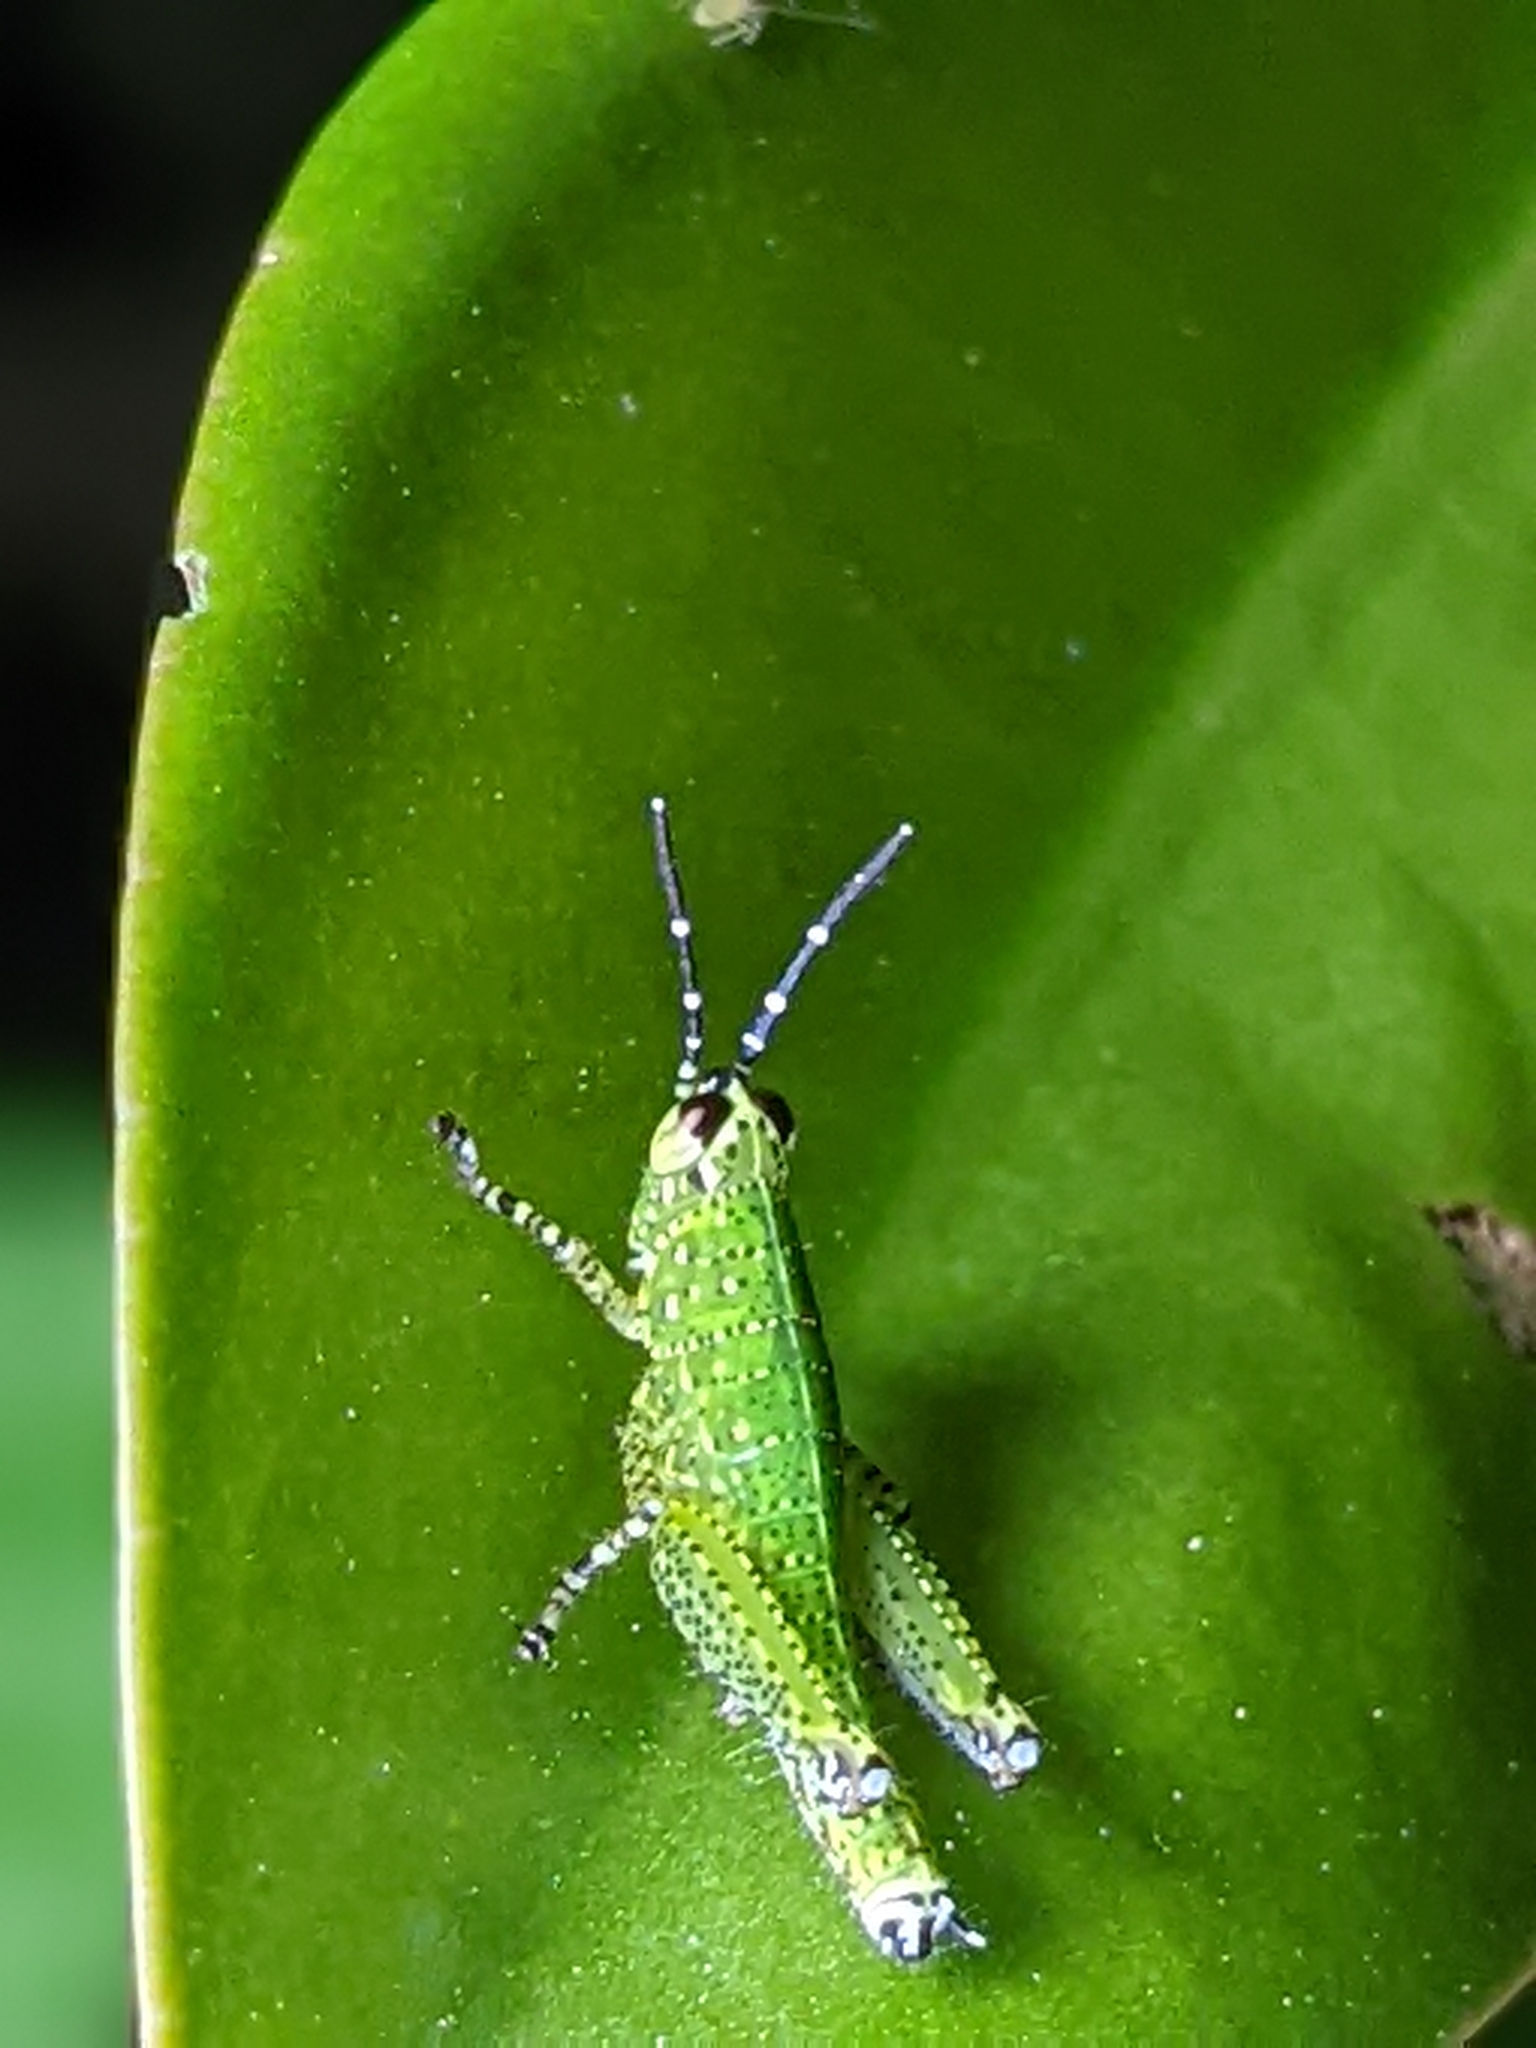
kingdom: Animalia
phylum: Arthropoda
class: Insecta
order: Orthoptera
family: Acrididae
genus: Xenocatantops
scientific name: Xenocatantops humile
